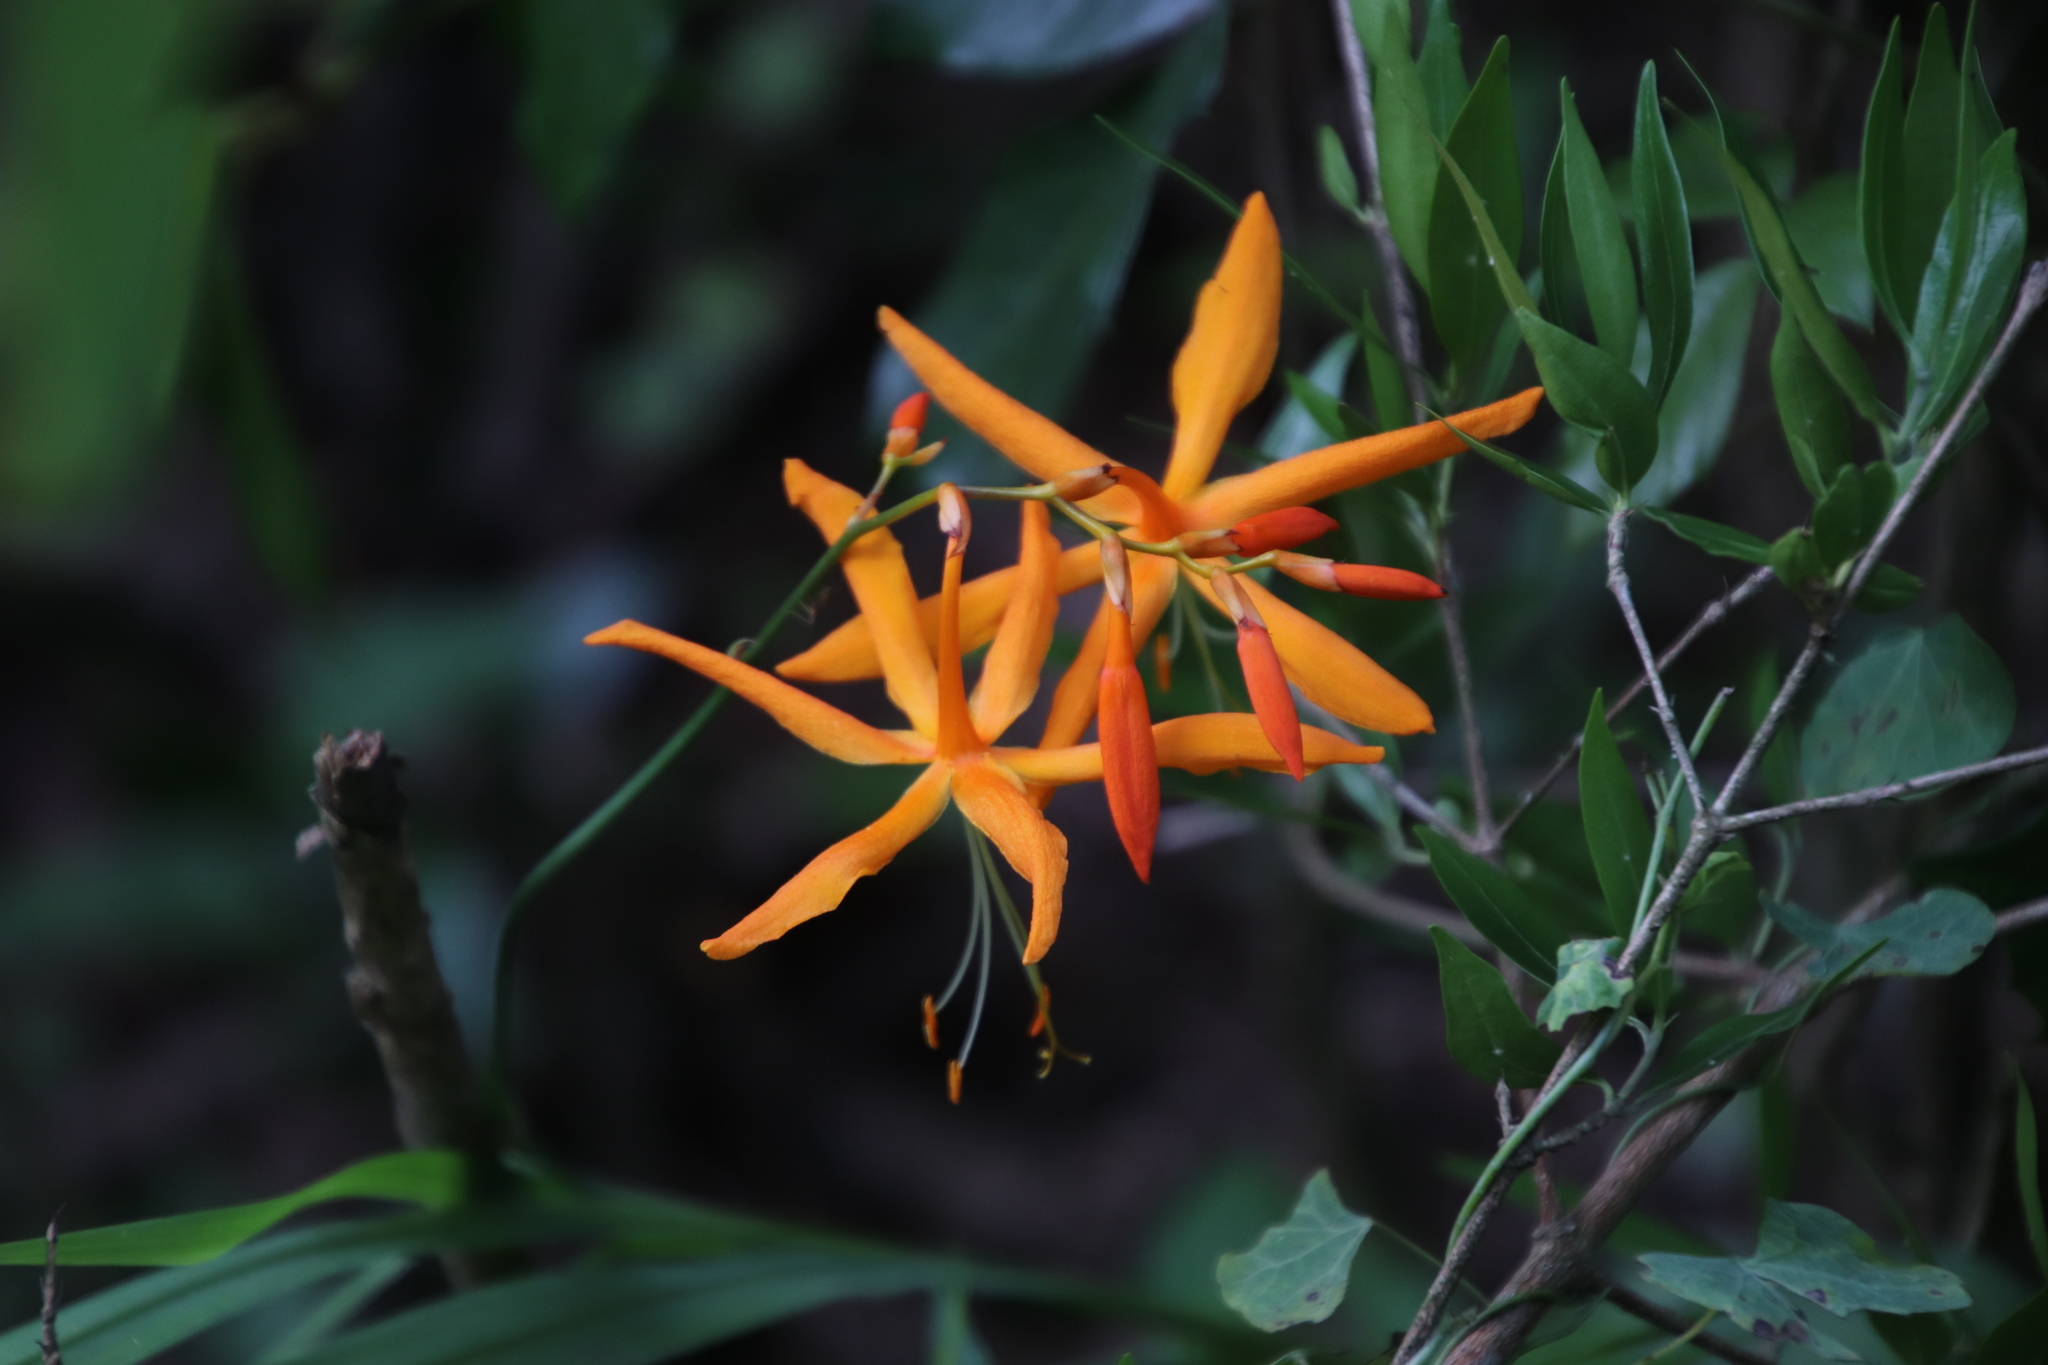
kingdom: Plantae
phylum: Tracheophyta
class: Liliopsida
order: Asparagales
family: Iridaceae
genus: Crocosmia
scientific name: Crocosmia aurea
